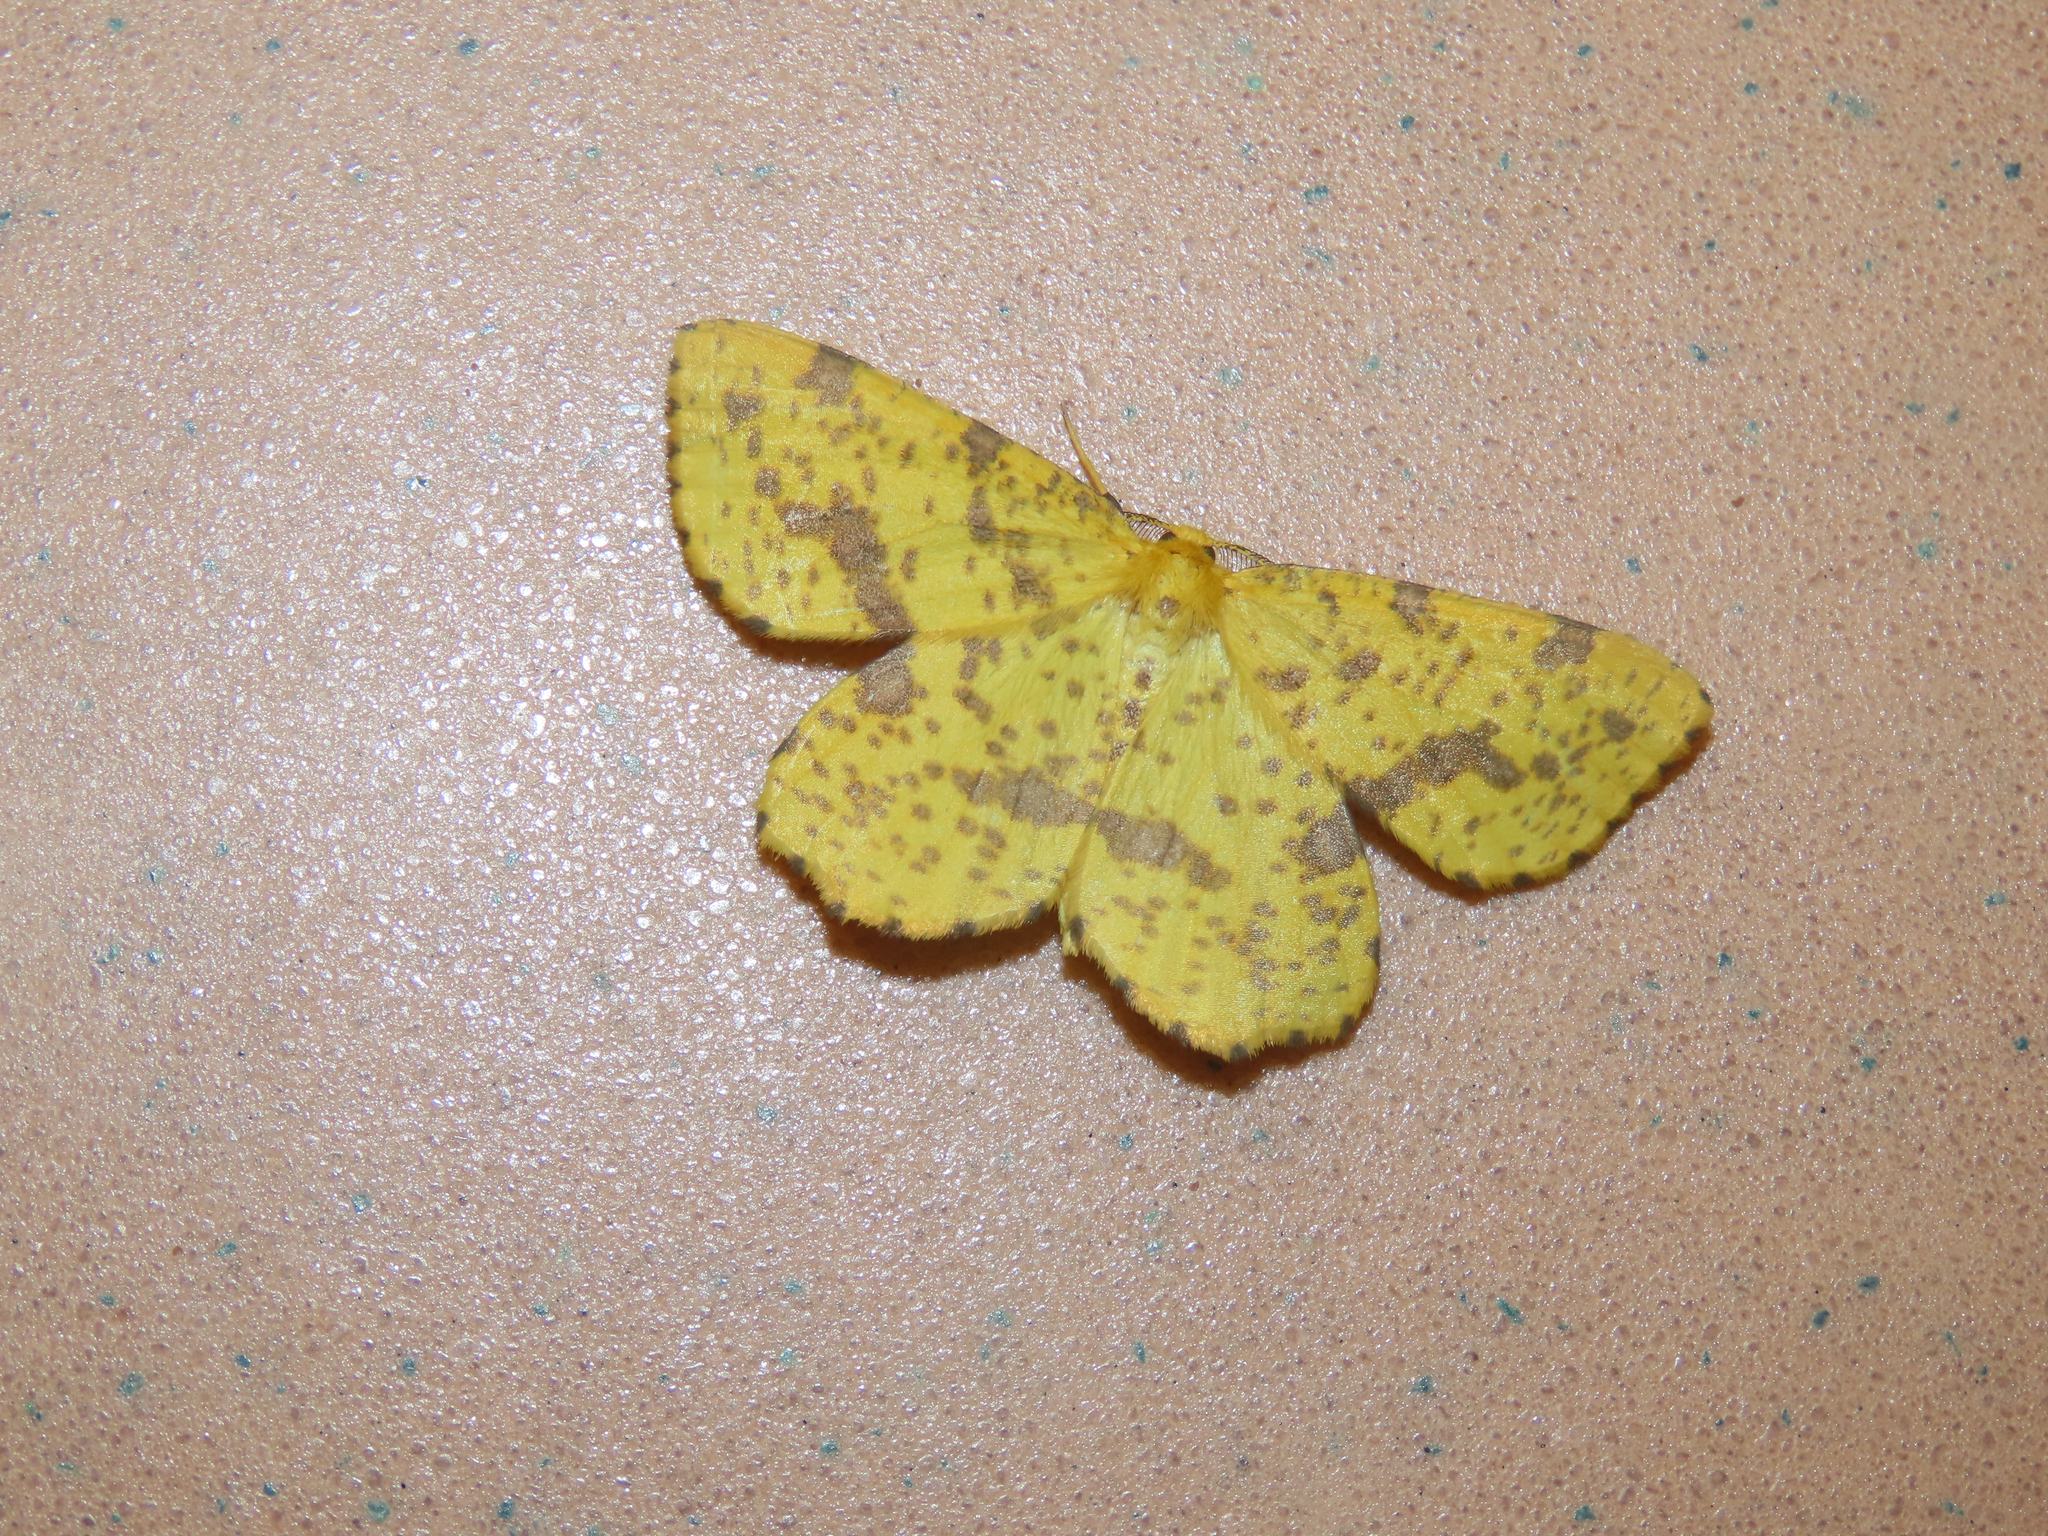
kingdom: Animalia
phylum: Arthropoda
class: Insecta
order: Lepidoptera
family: Geometridae
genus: Xanthotype
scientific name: Xanthotype
